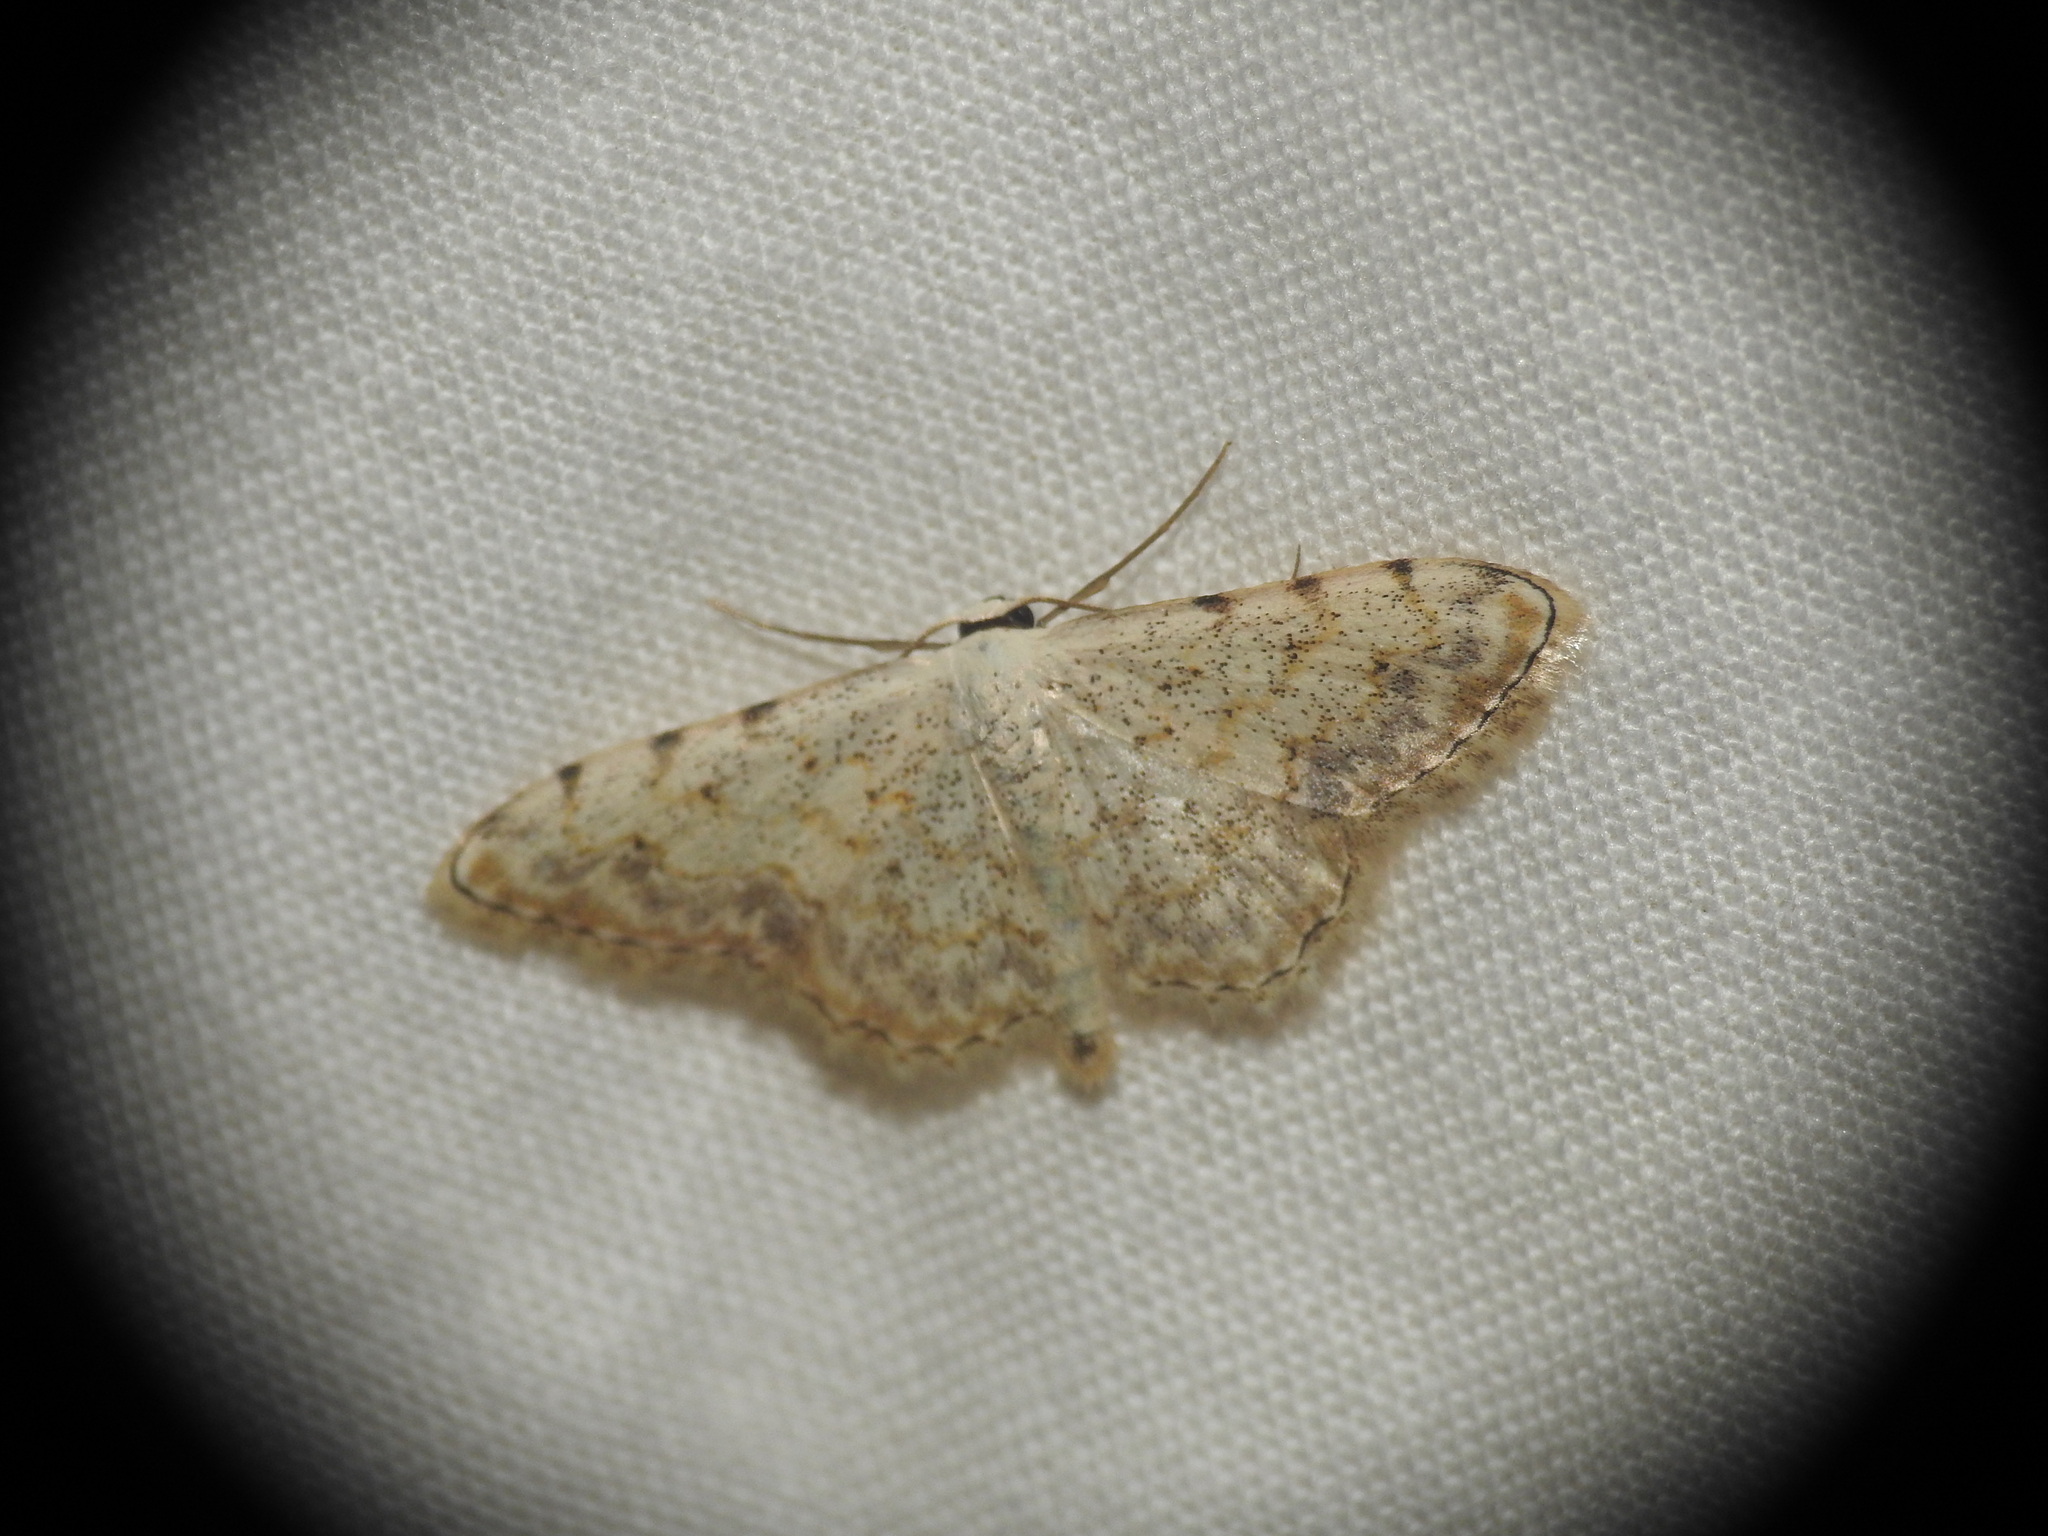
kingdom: Animalia
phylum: Arthropoda
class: Insecta
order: Lepidoptera
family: Geometridae
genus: Scopula
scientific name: Scopula submutata
